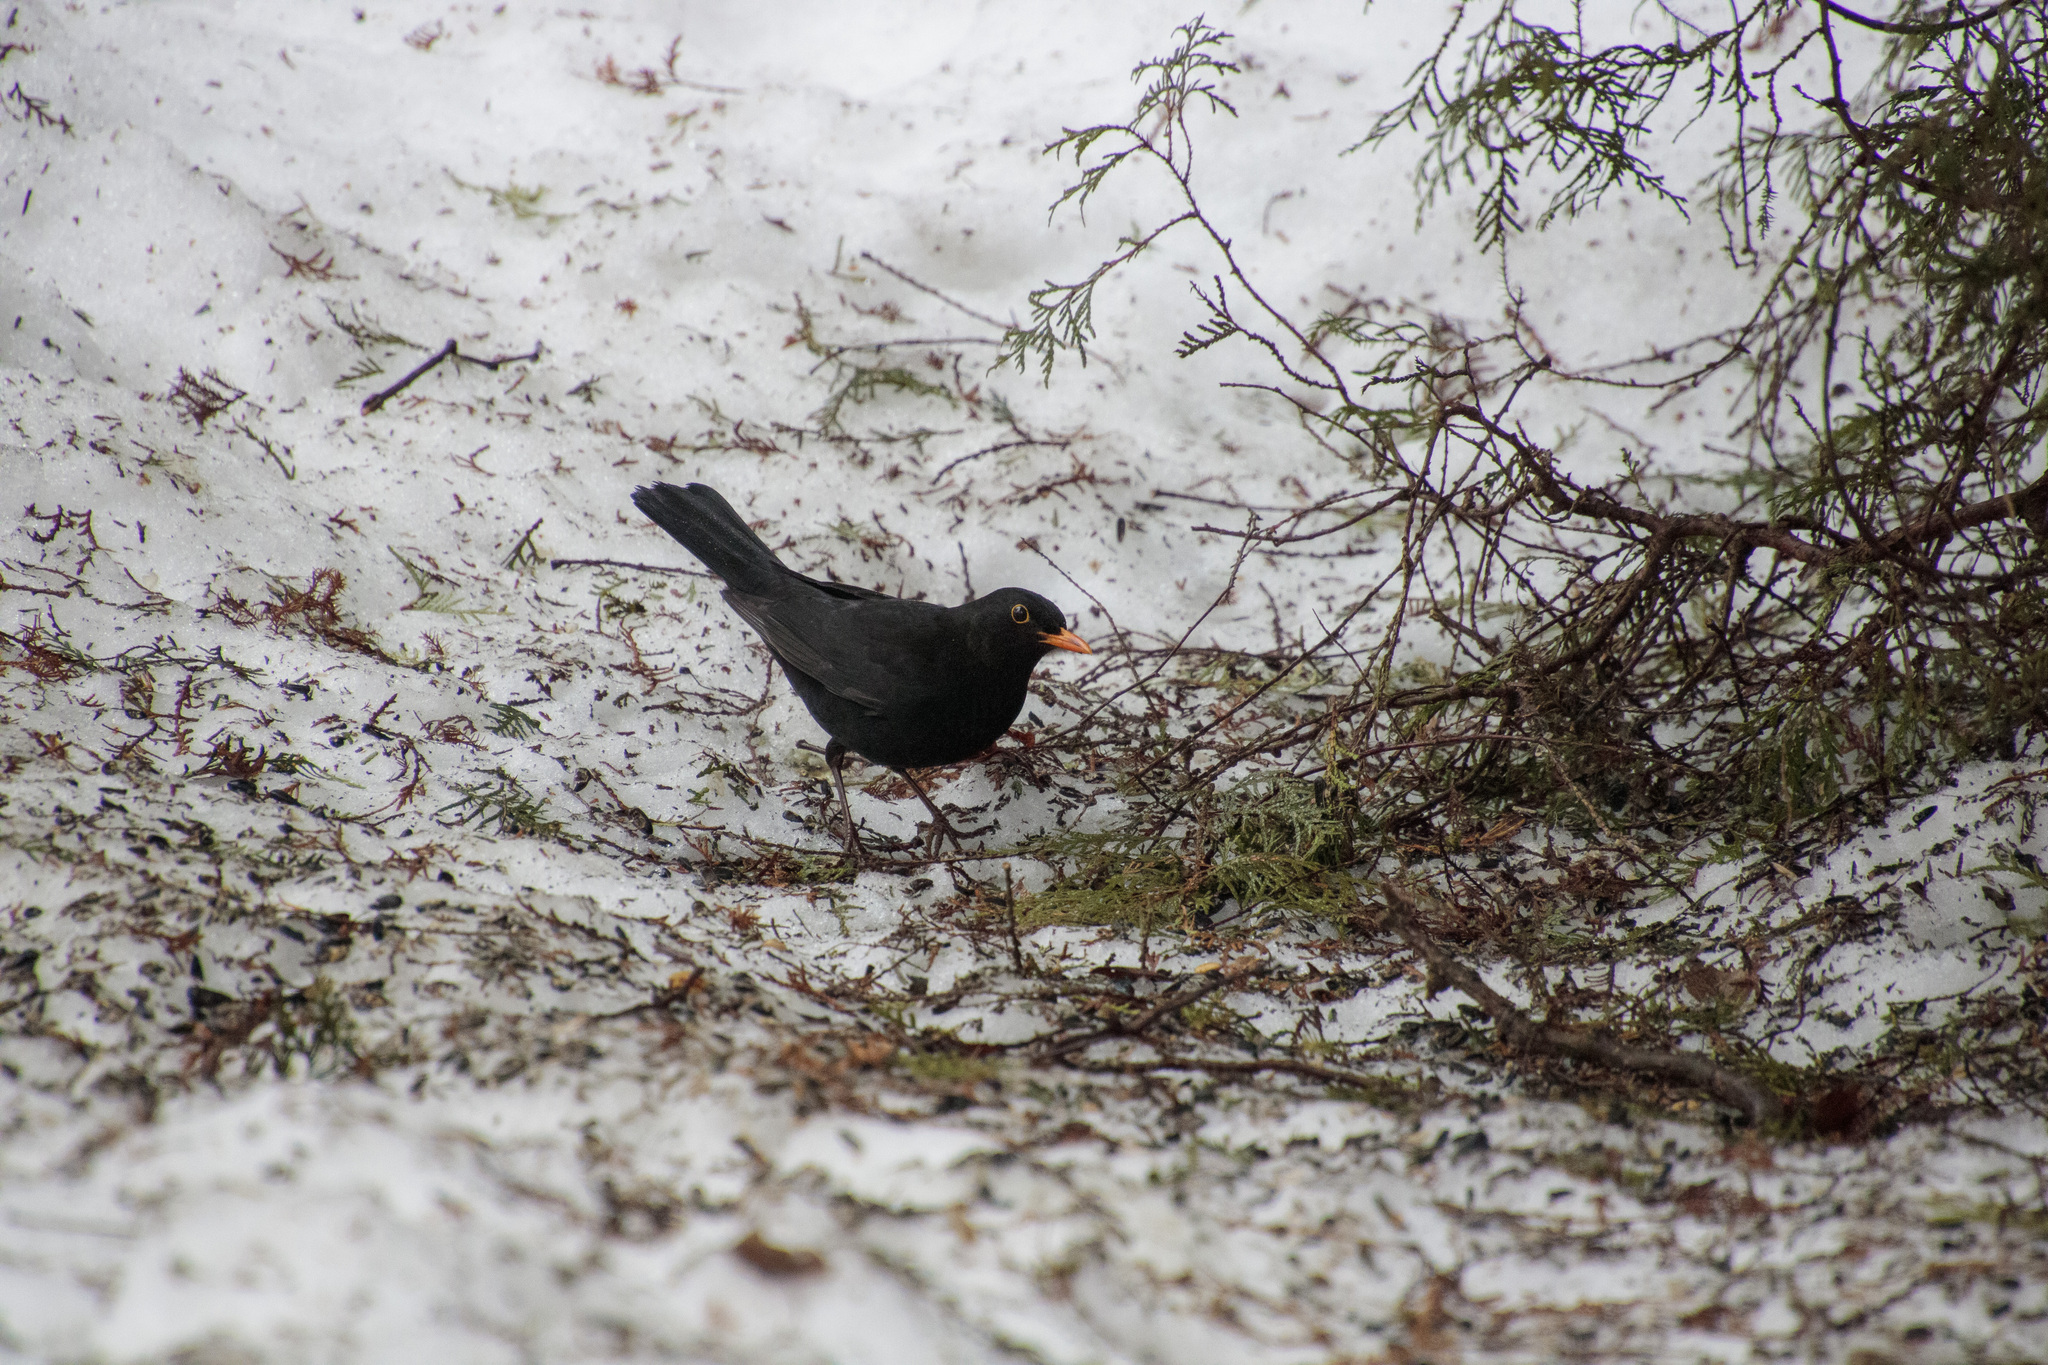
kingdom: Animalia
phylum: Chordata
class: Aves
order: Passeriformes
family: Turdidae
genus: Turdus
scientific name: Turdus merula
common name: Common blackbird
